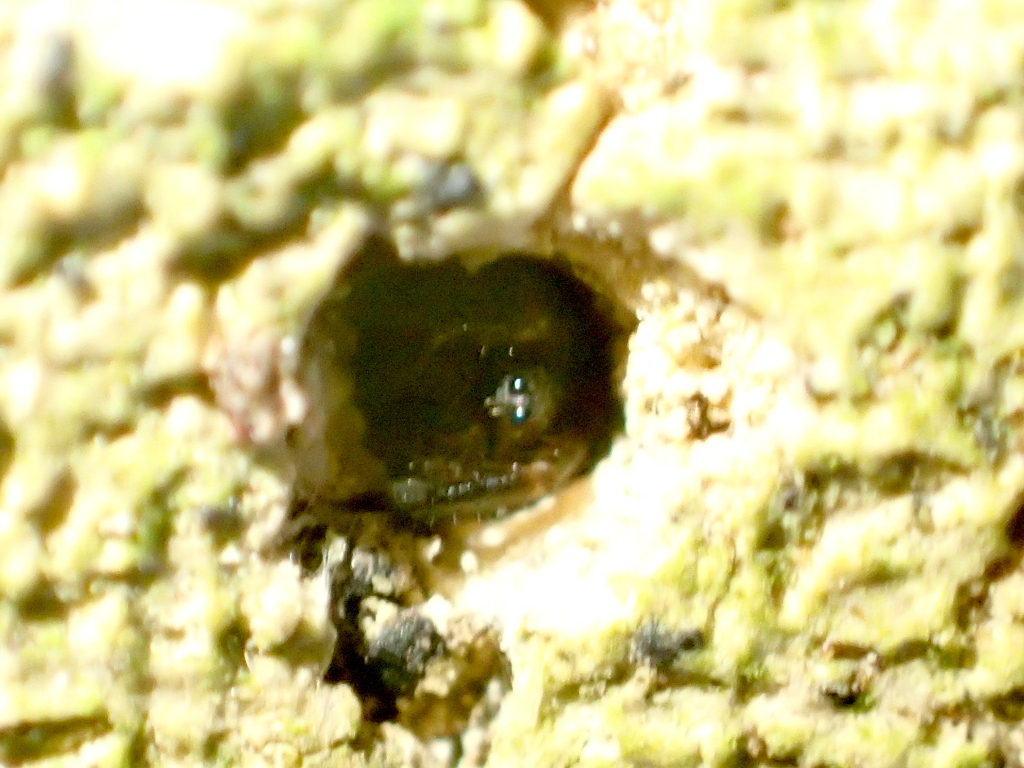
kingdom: Animalia
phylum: Arthropoda
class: Arachnida
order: Araneae
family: Cycloctenidae
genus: Plectophanes
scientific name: Plectophanes
